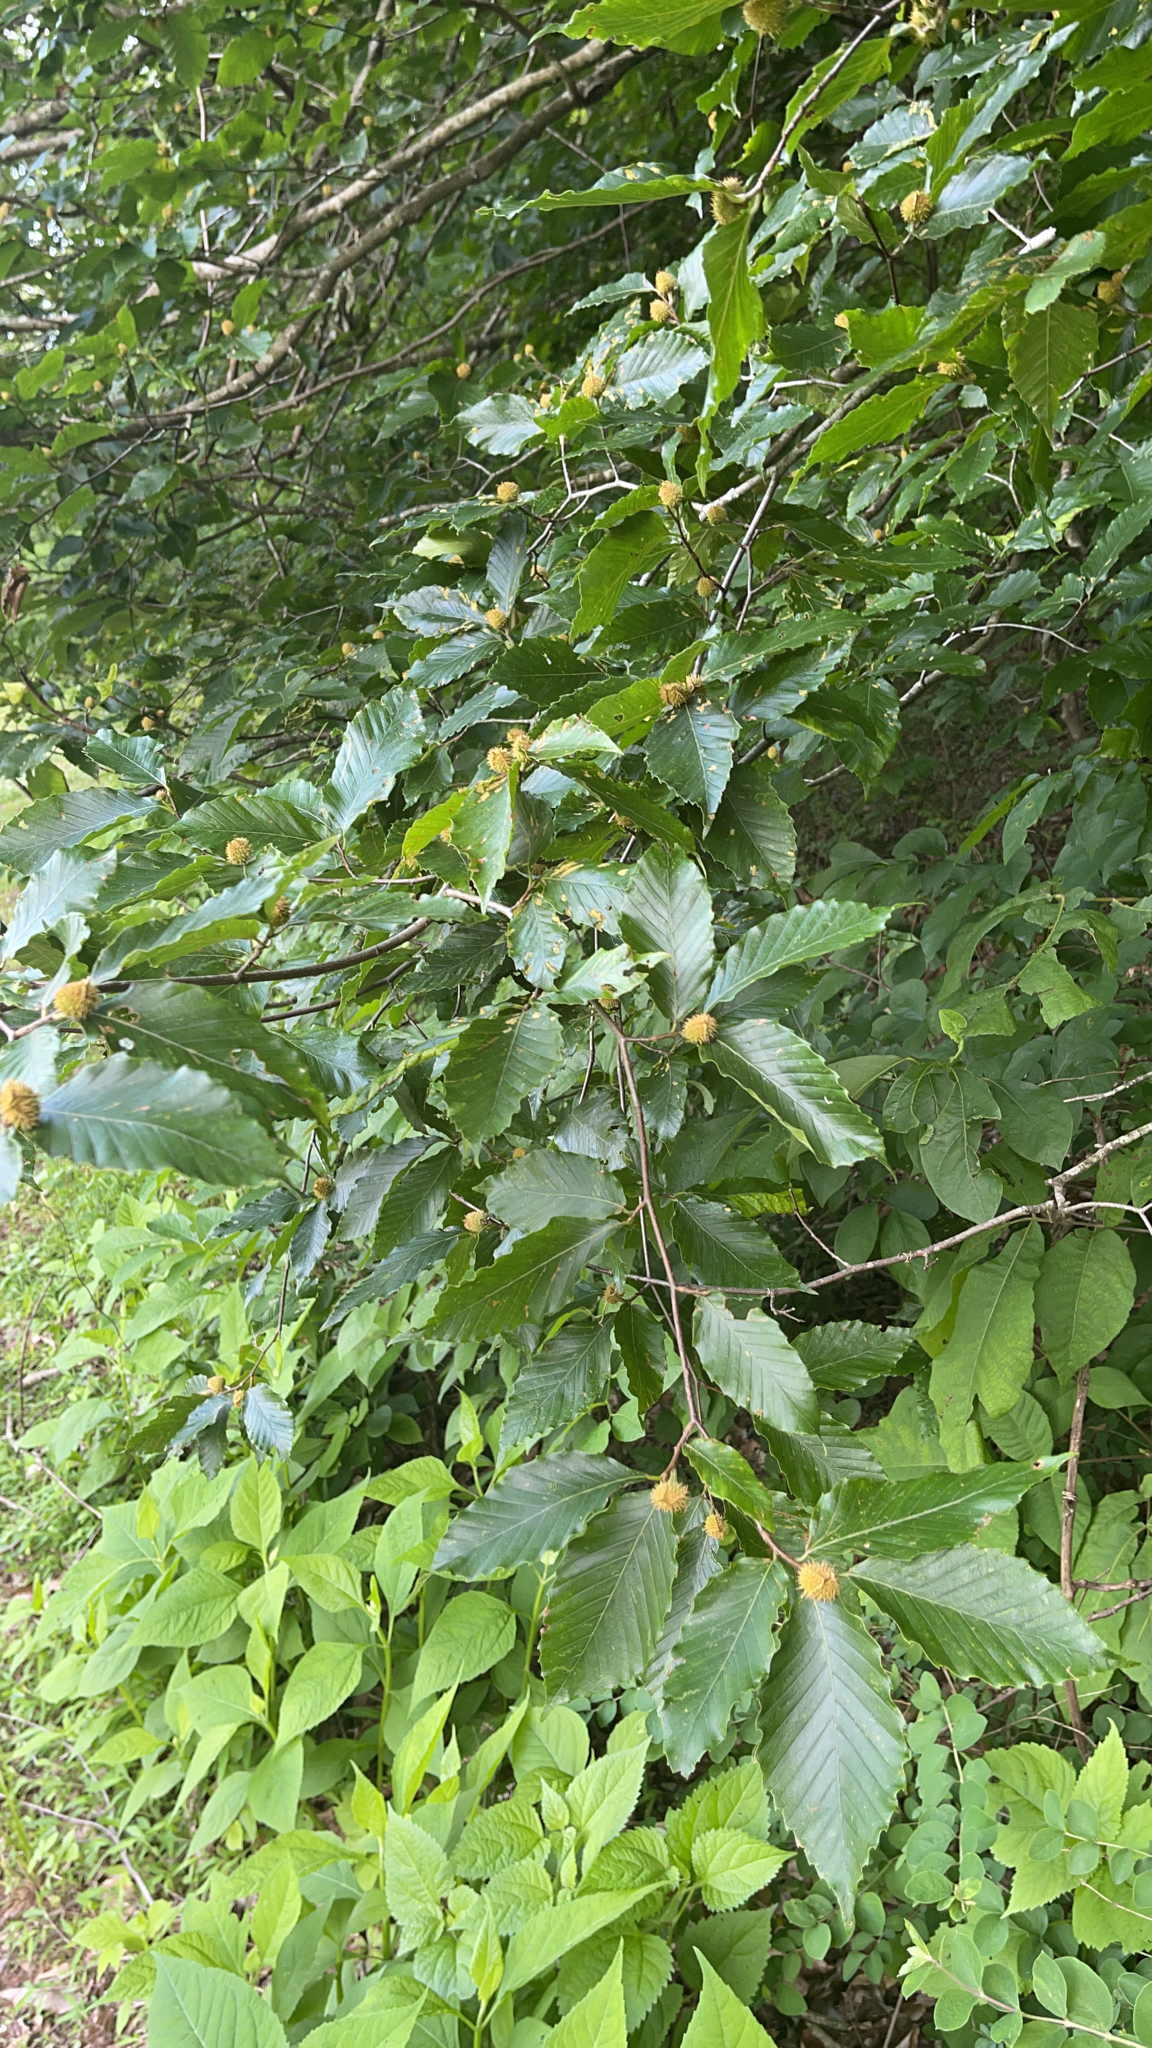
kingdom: Plantae
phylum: Tracheophyta
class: Magnoliopsida
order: Fagales
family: Fagaceae
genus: Fagus
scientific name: Fagus grandifolia
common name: American beech
